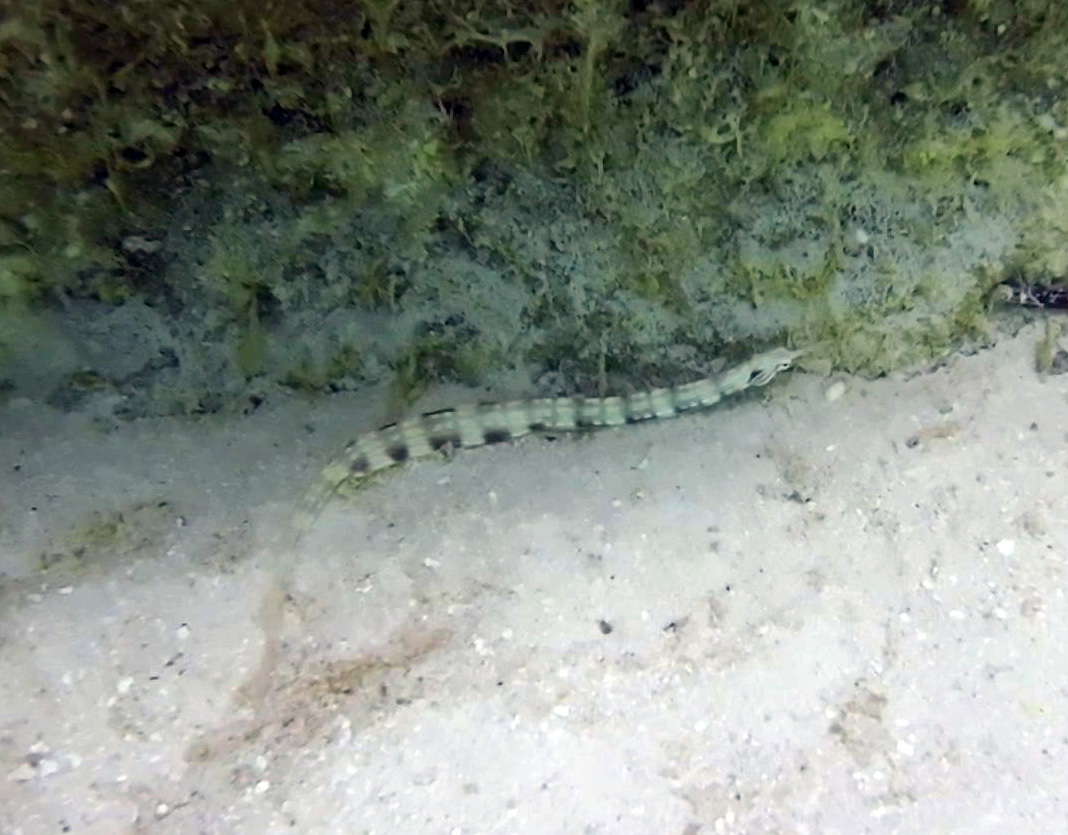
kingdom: Animalia
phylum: Chordata
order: Syngnathiformes
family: Syngnathidae
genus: Corythoichthys
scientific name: Corythoichthys haematopterus
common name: Bloodspot pipefish
